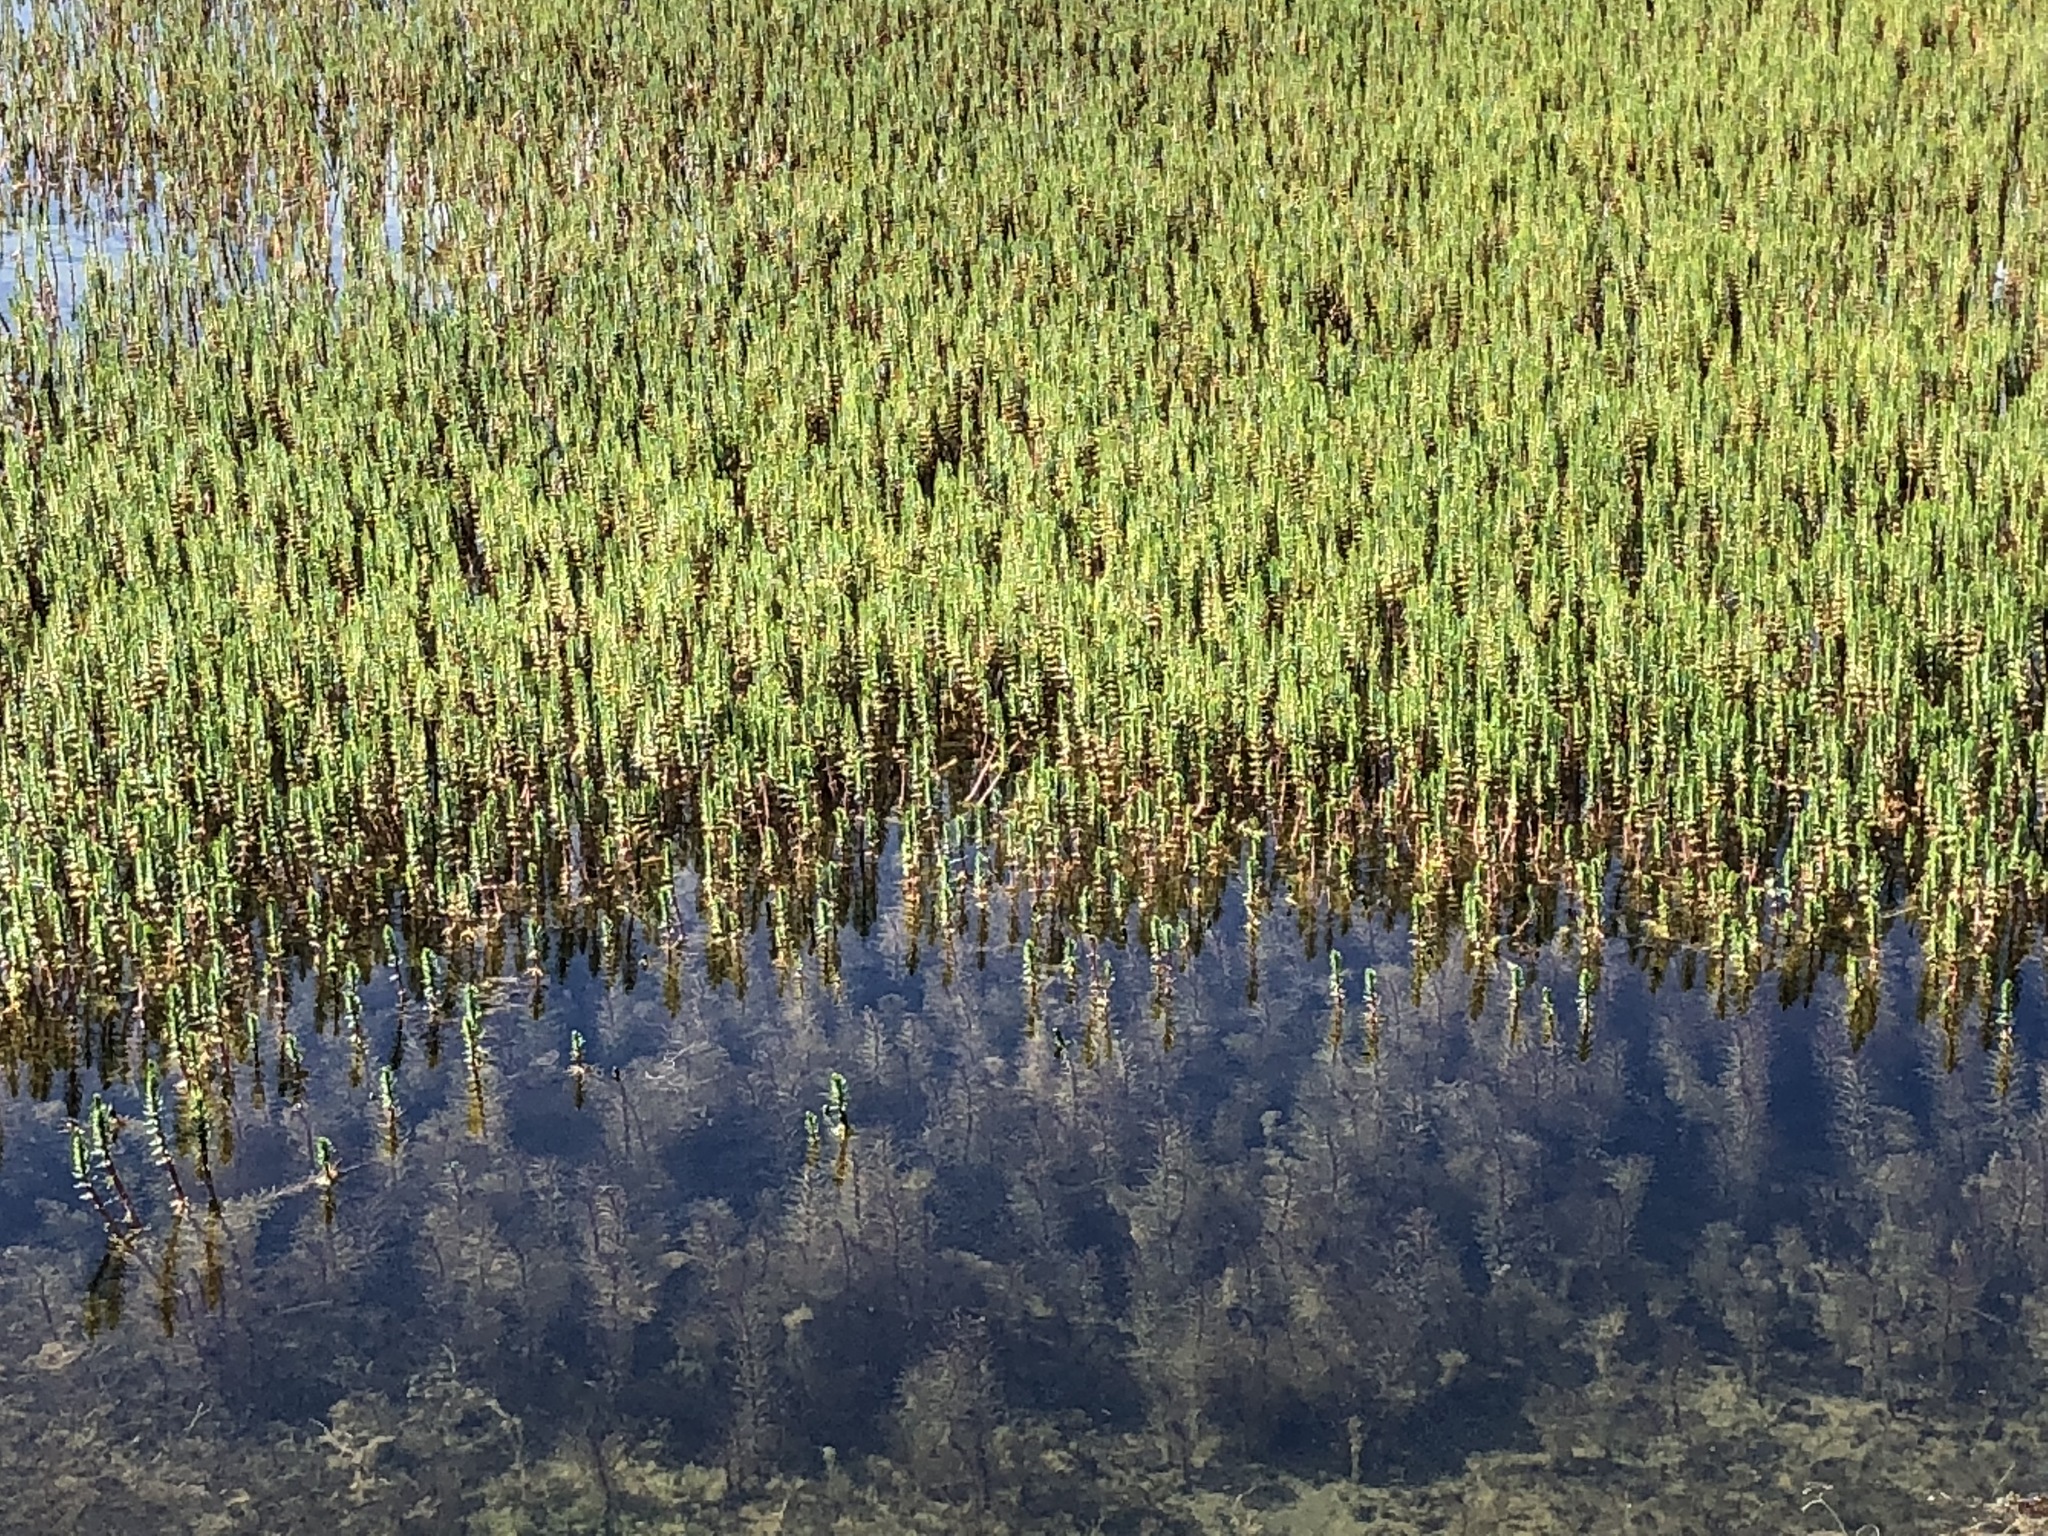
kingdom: Plantae
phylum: Tracheophyta
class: Magnoliopsida
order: Lamiales
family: Plantaginaceae
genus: Hippuris
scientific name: Hippuris vulgaris
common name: Mare's-tail
